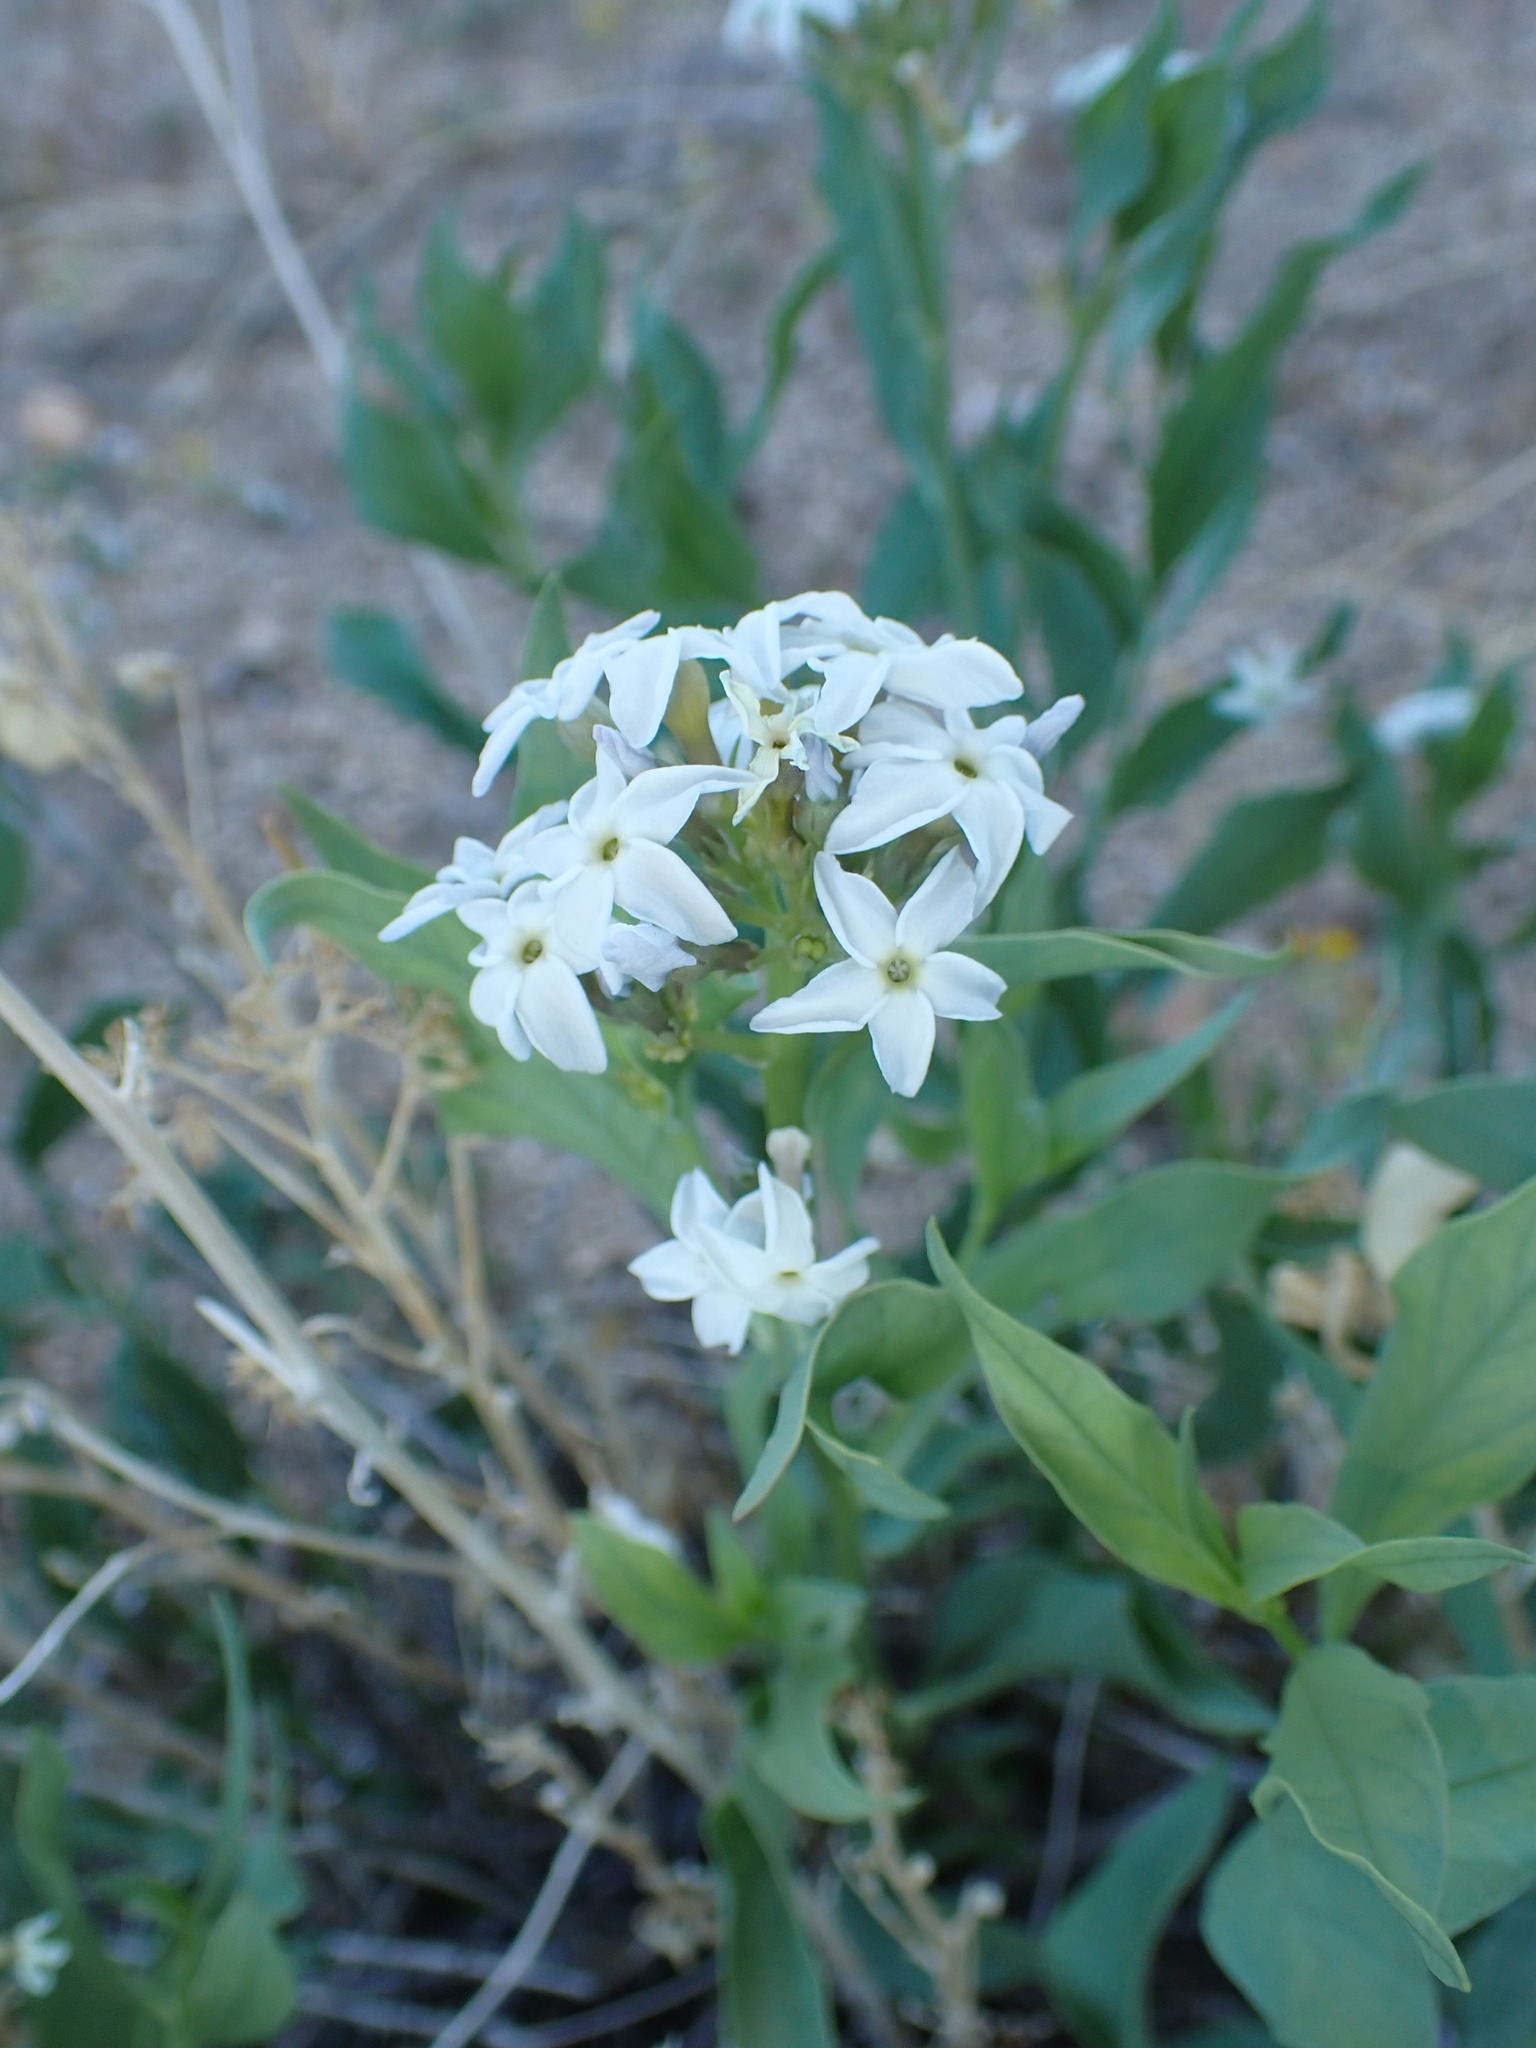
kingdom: Plantae
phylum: Tracheophyta
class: Magnoliopsida
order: Gentianales
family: Apocynaceae
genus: Amsonia
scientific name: Amsonia tomentosa
